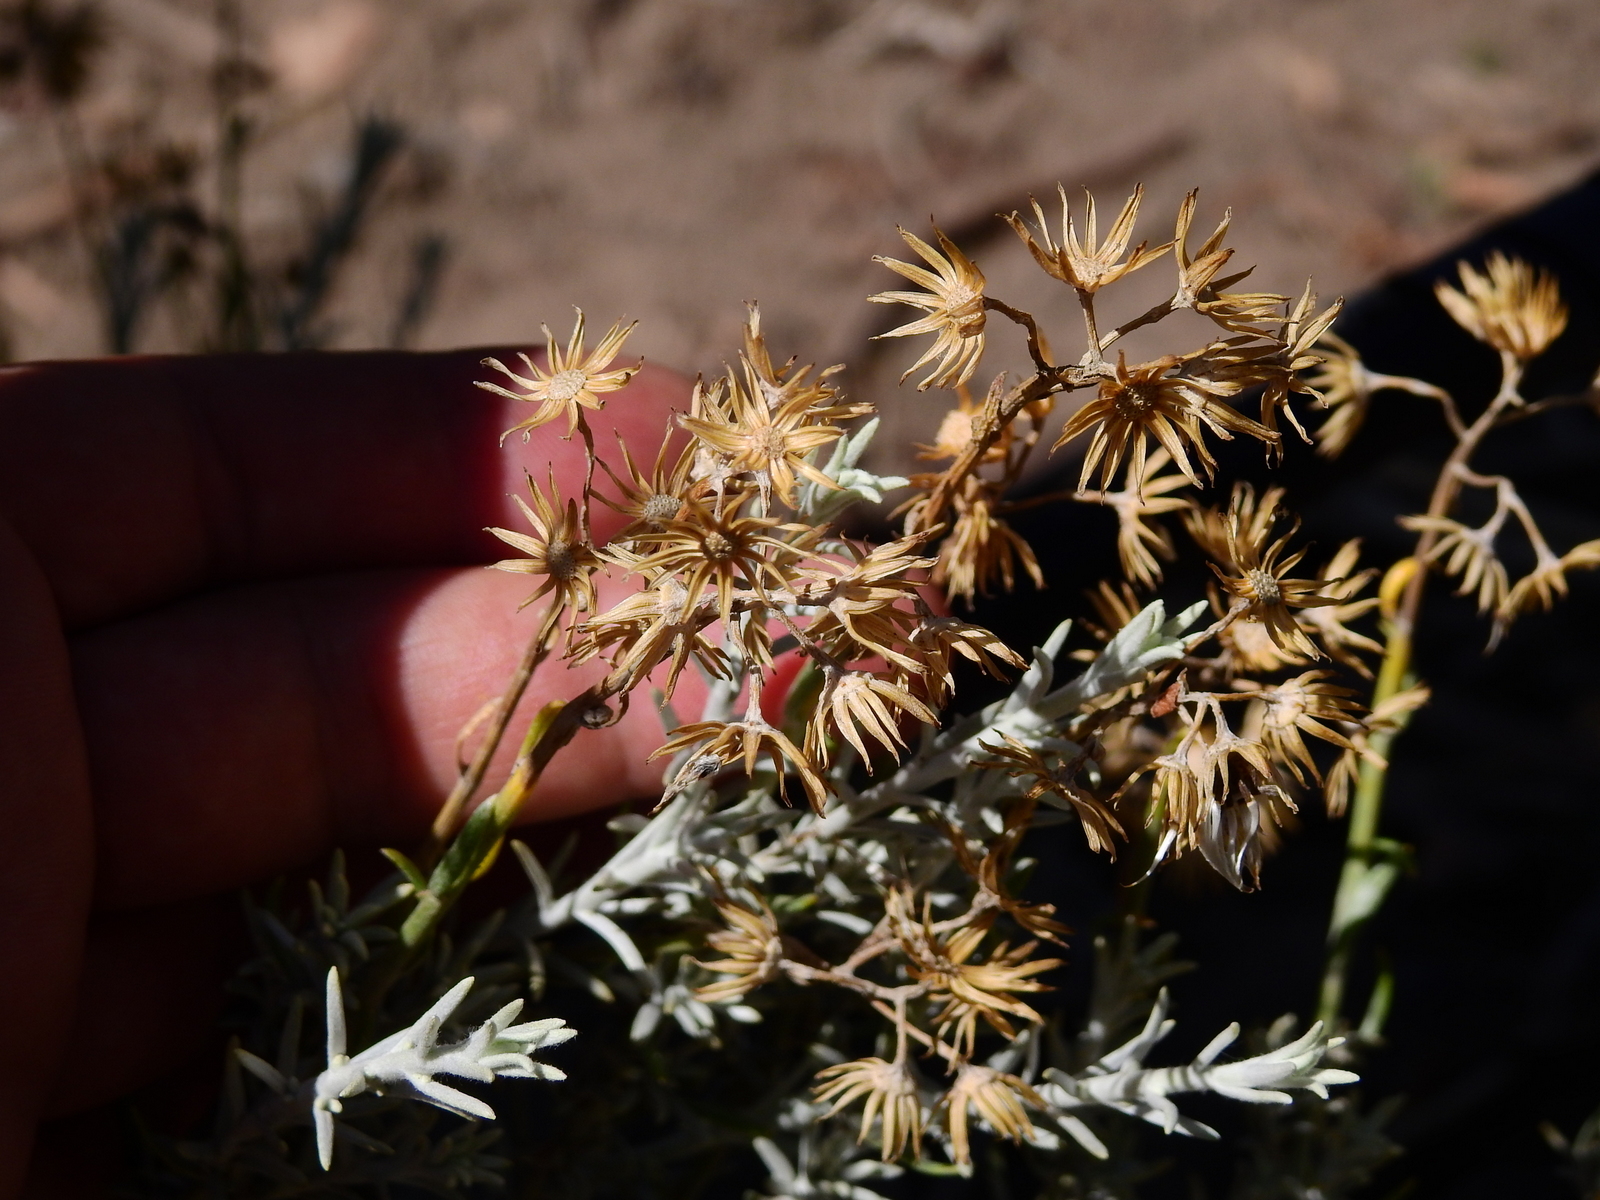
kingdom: Plantae
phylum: Tracheophyta
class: Magnoliopsida
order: Asterales
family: Asteraceae
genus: Senecio
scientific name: Senecio filaginoides
